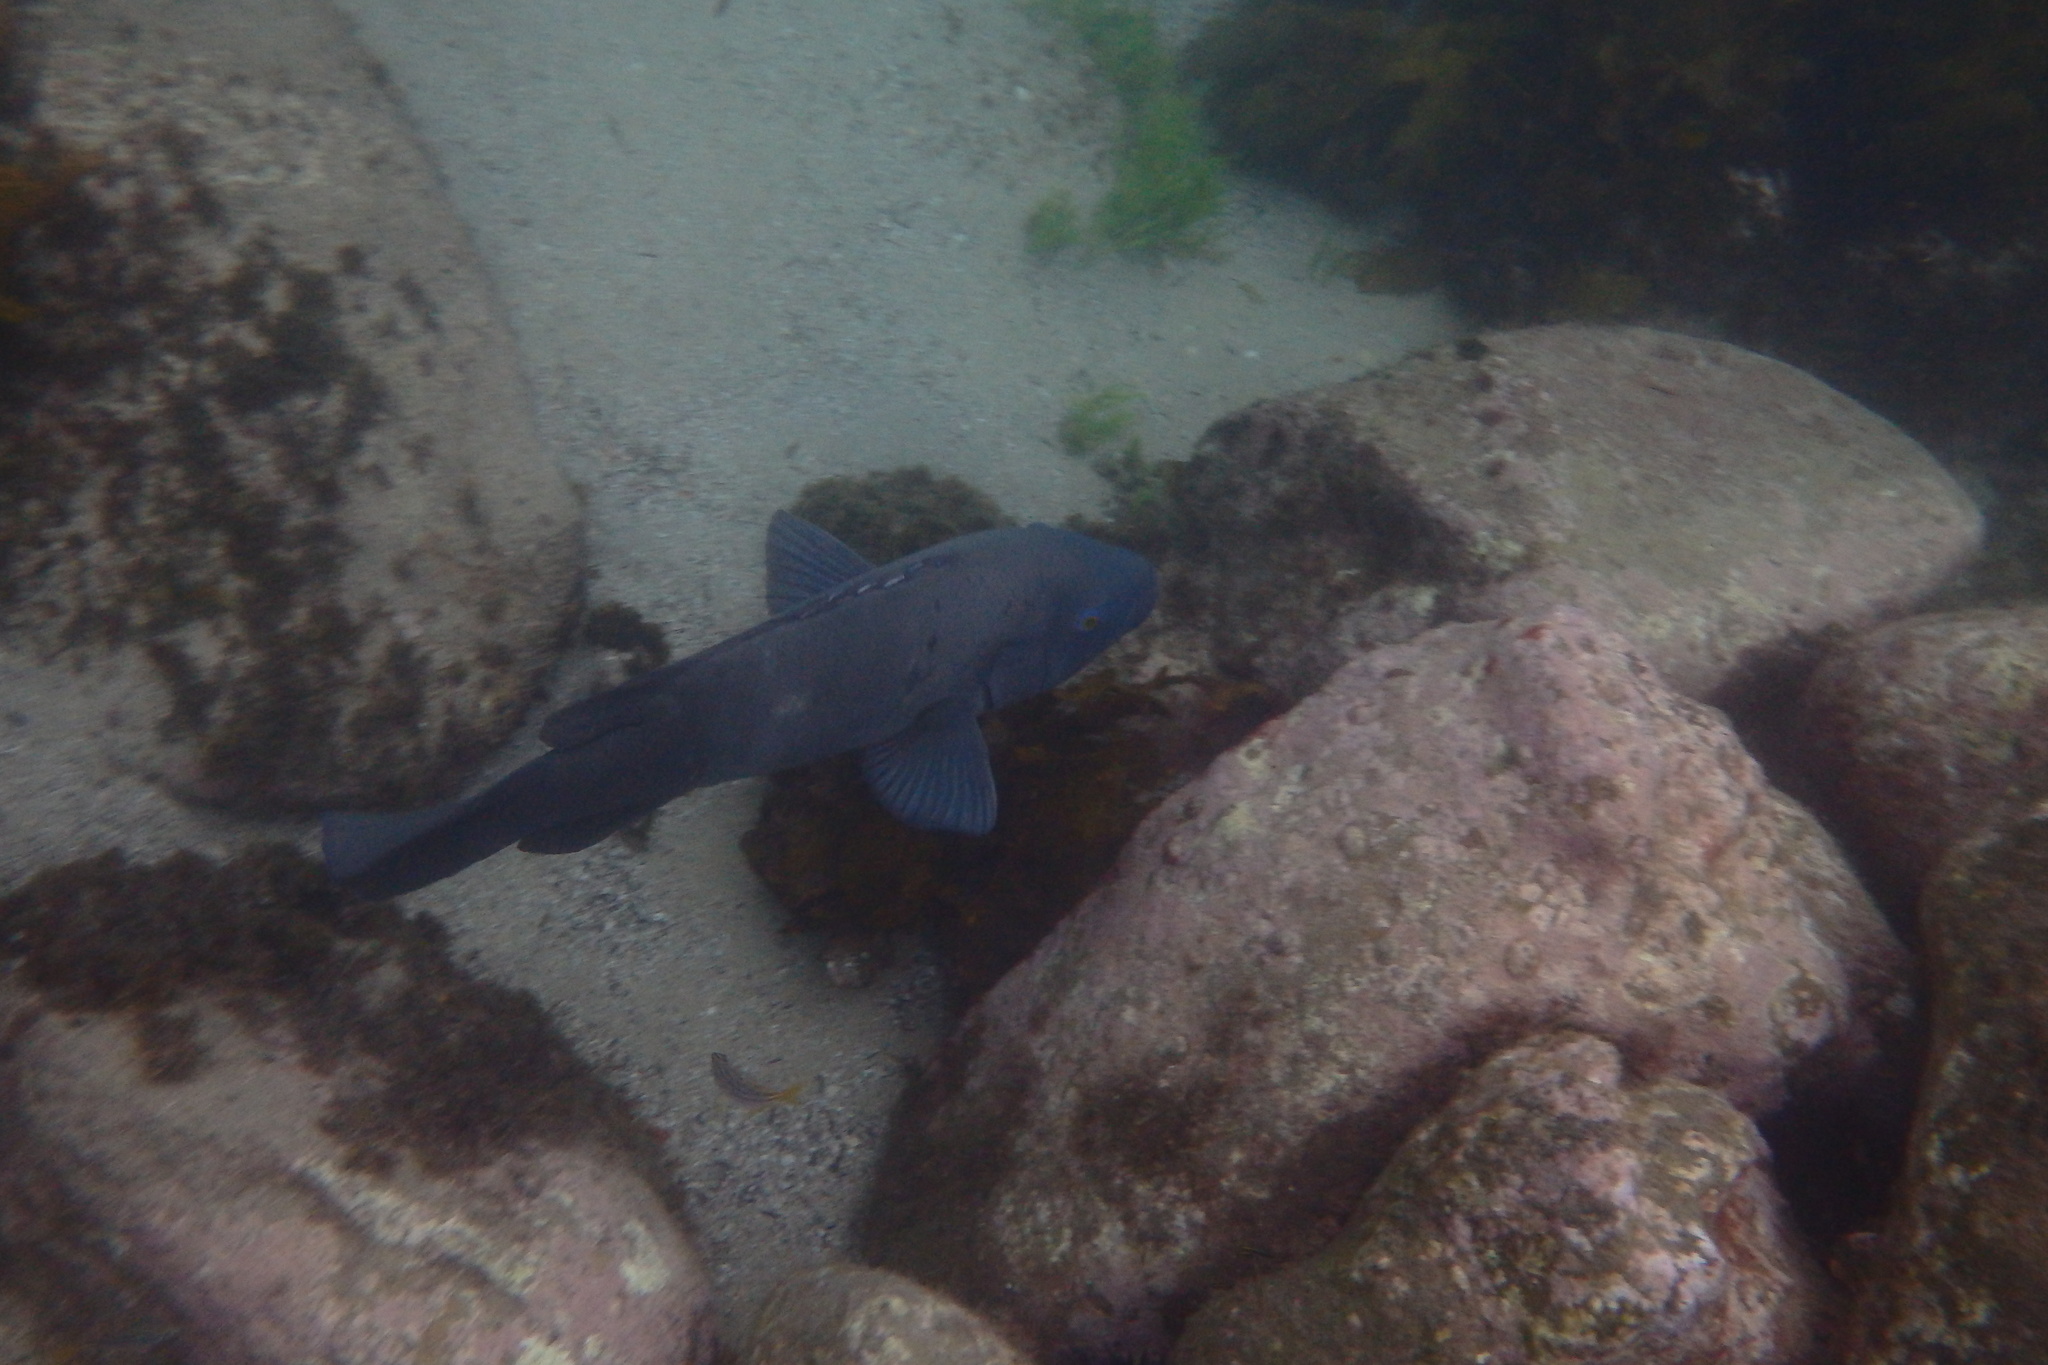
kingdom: Animalia
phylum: Chordata
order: Perciformes
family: Labridae
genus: Achoerodus
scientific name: Achoerodus viridis
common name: Brown groper
